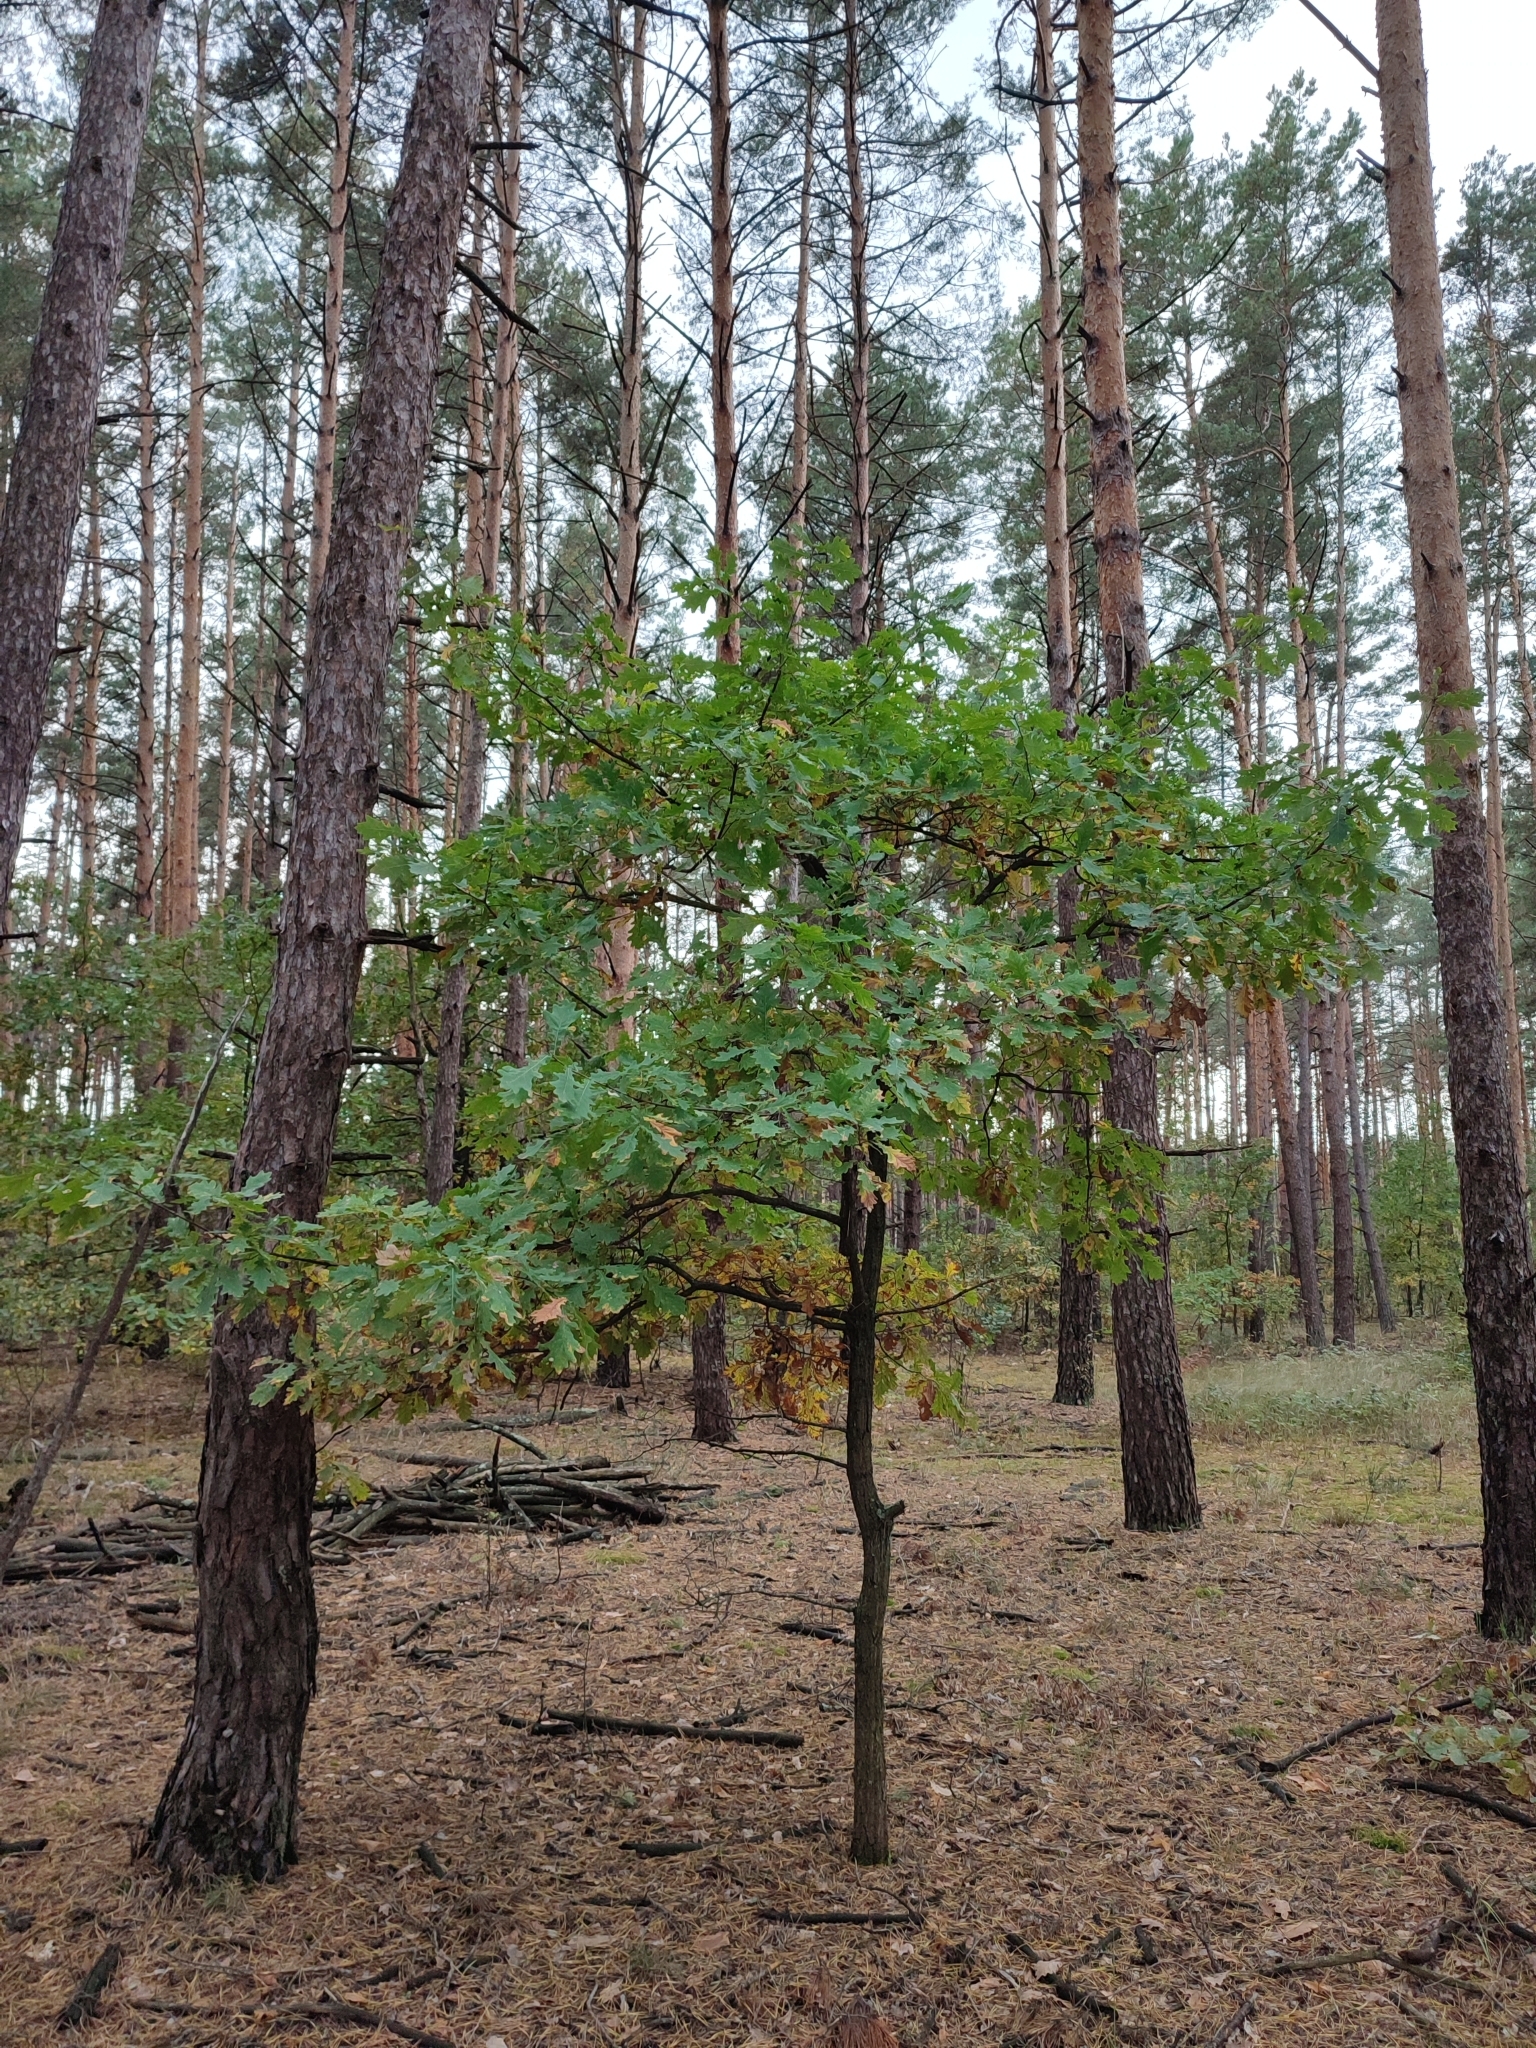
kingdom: Plantae
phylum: Tracheophyta
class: Magnoliopsida
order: Fagales
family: Fagaceae
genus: Quercus
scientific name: Quercus robur
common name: Pedunculate oak
